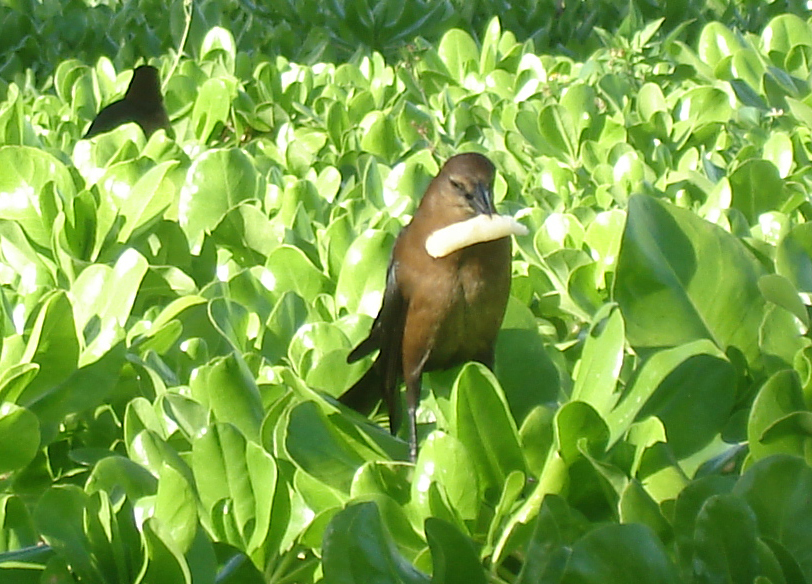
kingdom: Animalia
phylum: Chordata
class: Aves
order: Passeriformes
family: Icteridae
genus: Quiscalus
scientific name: Quiscalus major
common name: Boat-tailed grackle
